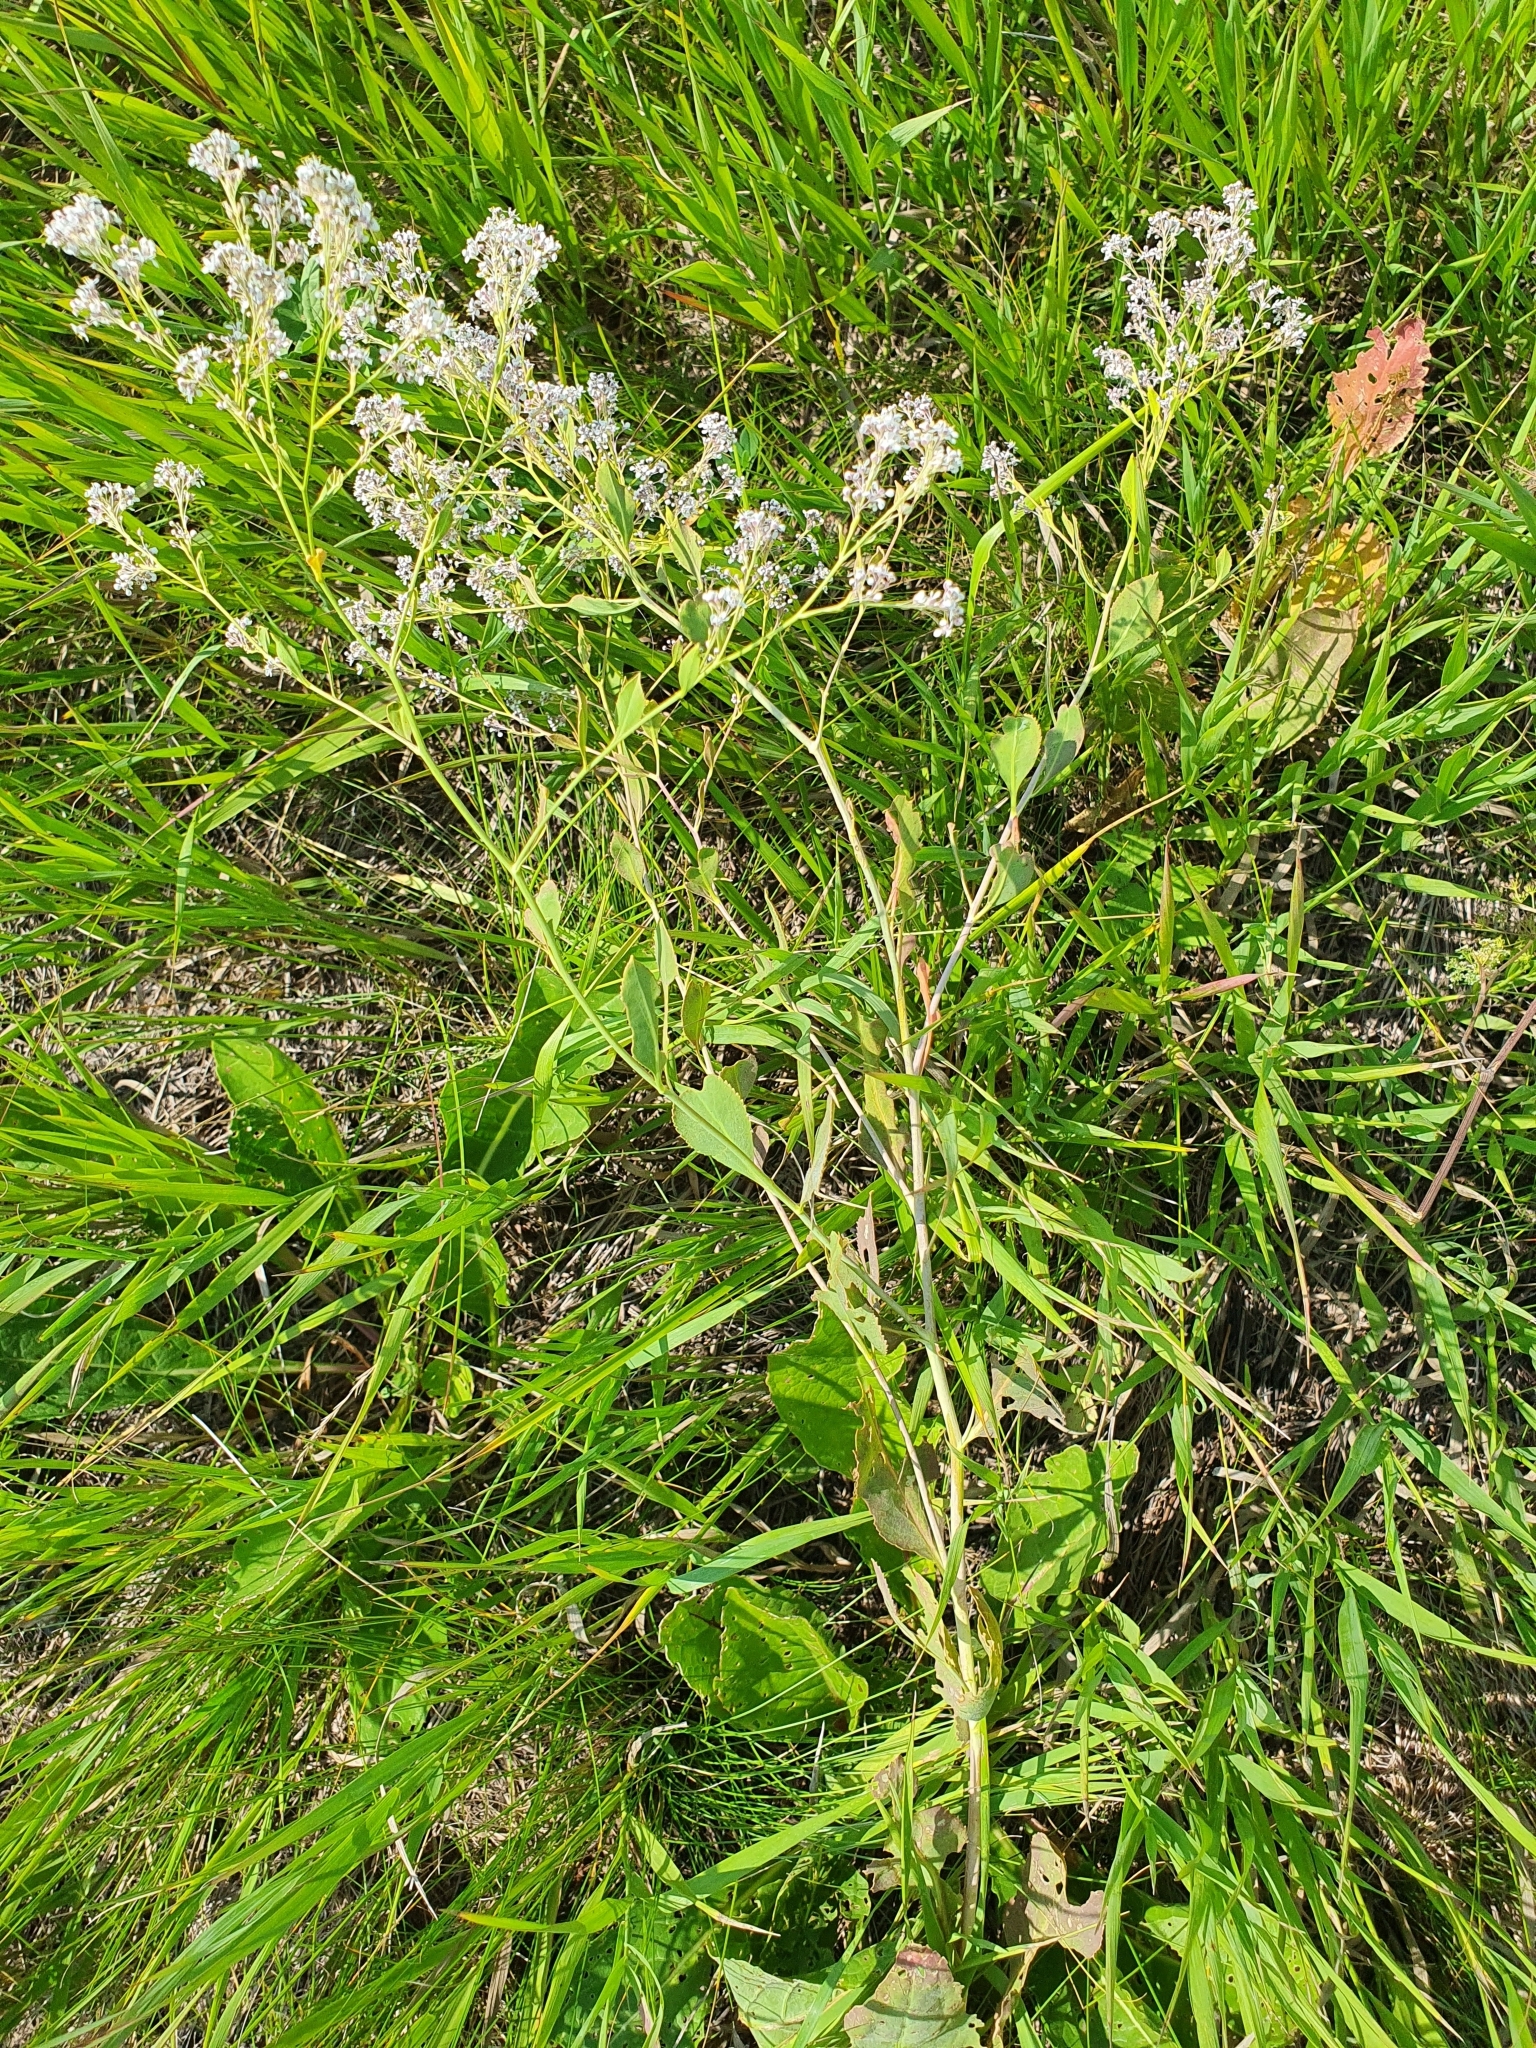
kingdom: Plantae
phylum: Tracheophyta
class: Magnoliopsida
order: Brassicales
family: Brassicaceae
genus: Lepidium
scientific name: Lepidium latifolium
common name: Dittander
